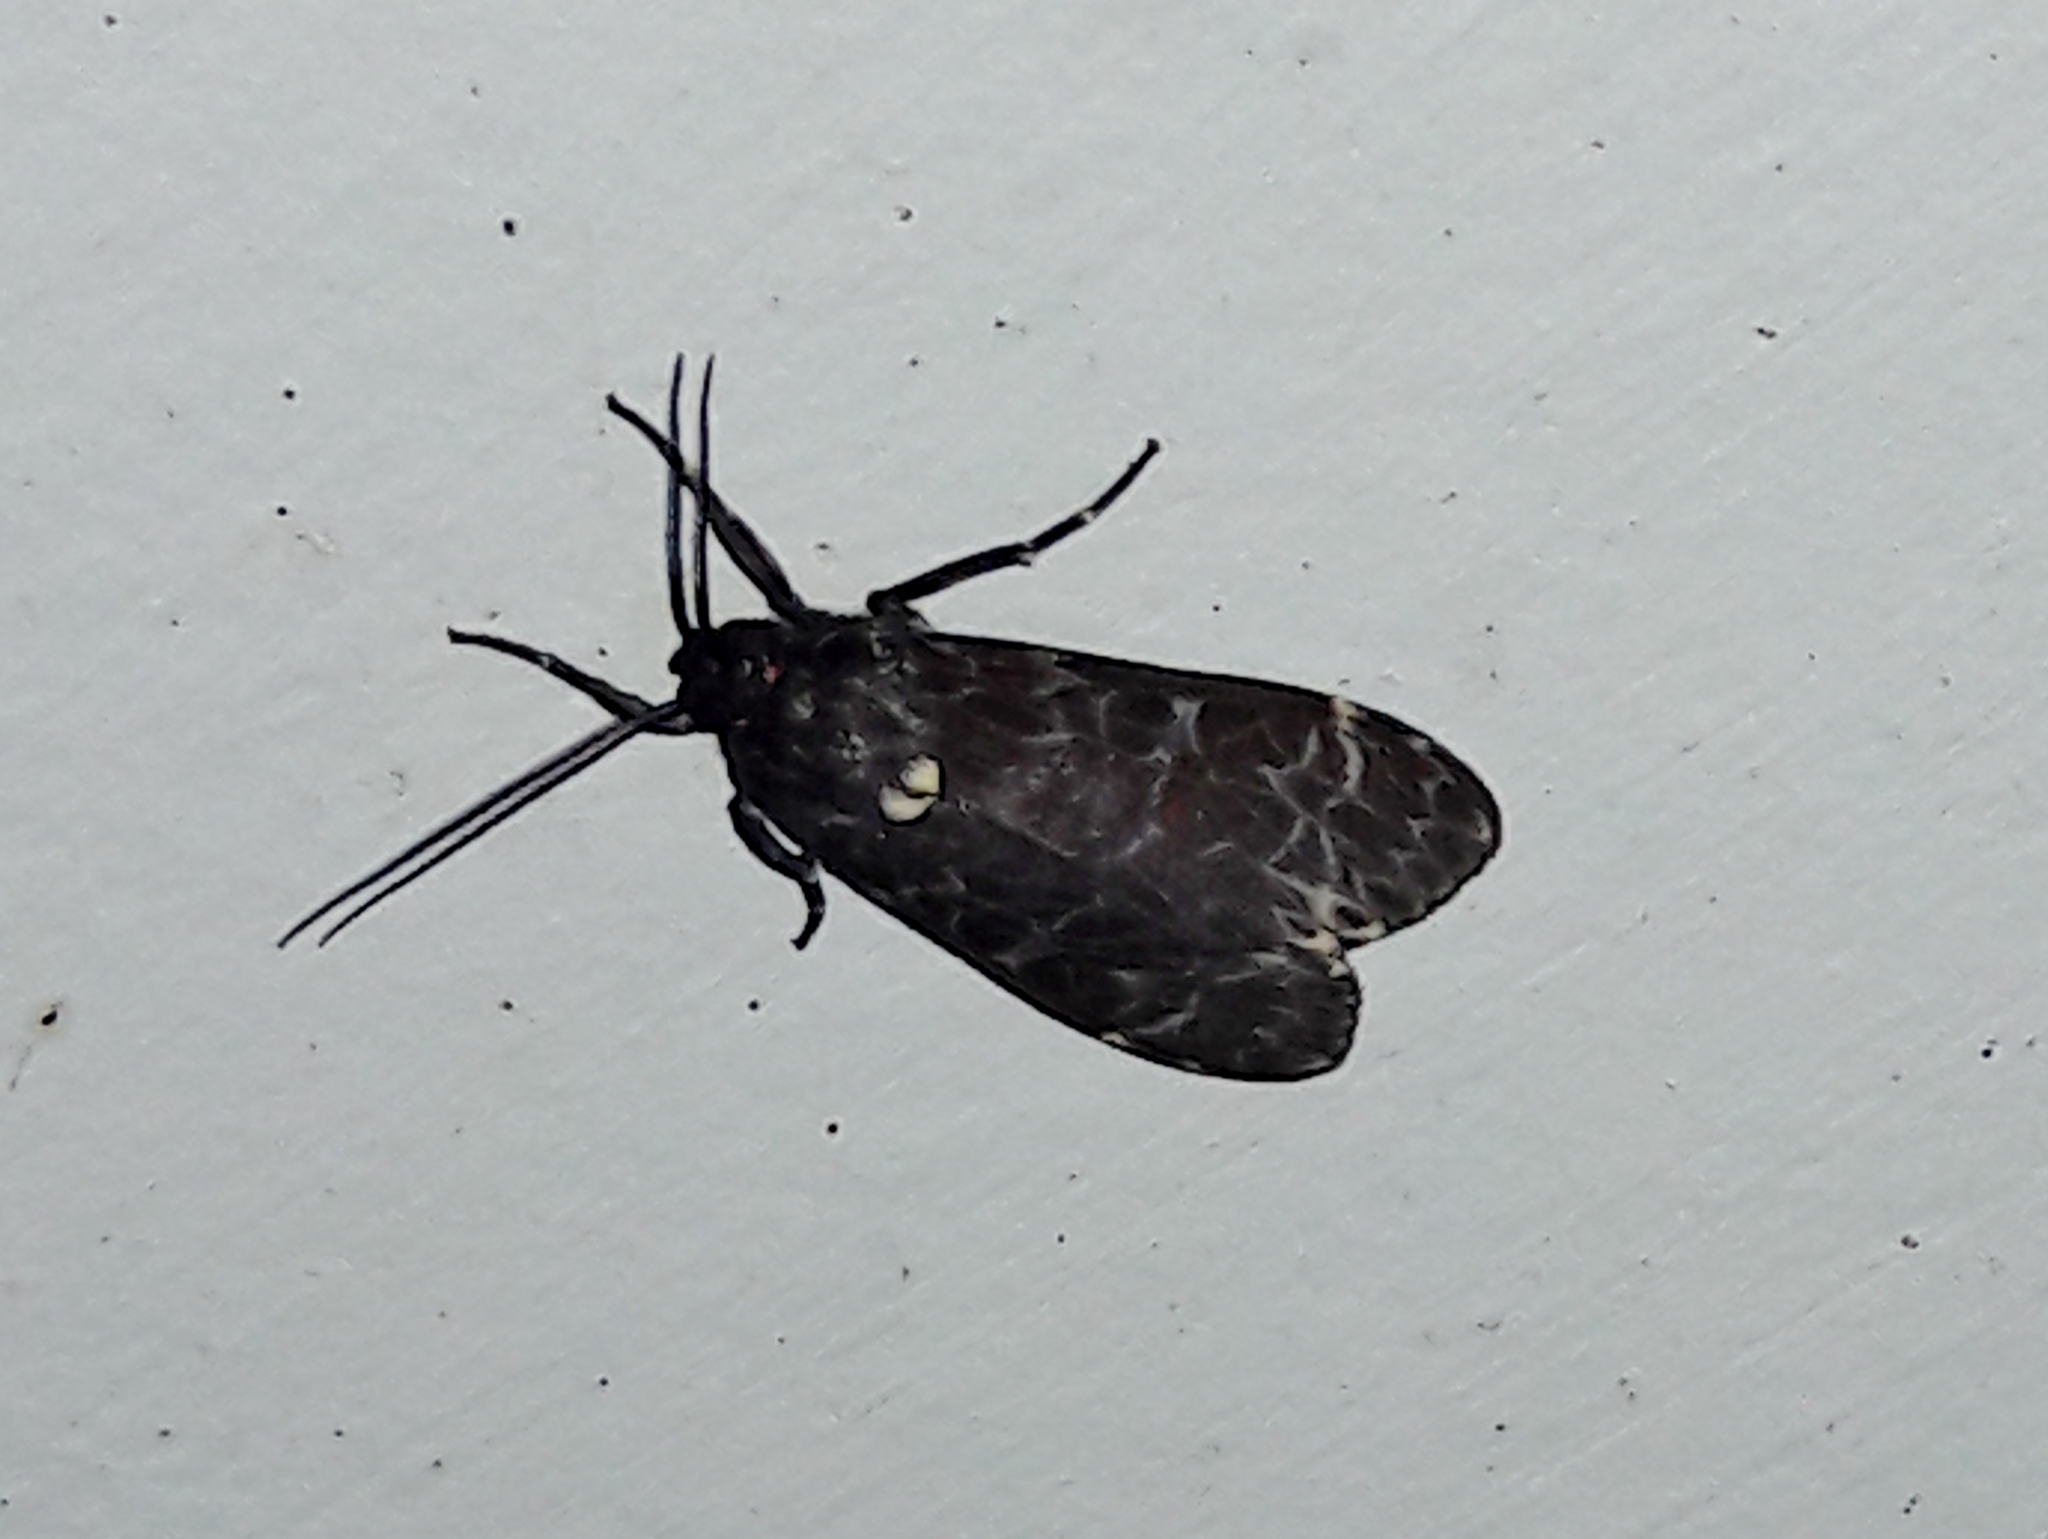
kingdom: Animalia
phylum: Arthropoda
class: Insecta
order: Lepidoptera
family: Erebidae
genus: Eucereon
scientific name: Eucereon sylvius
